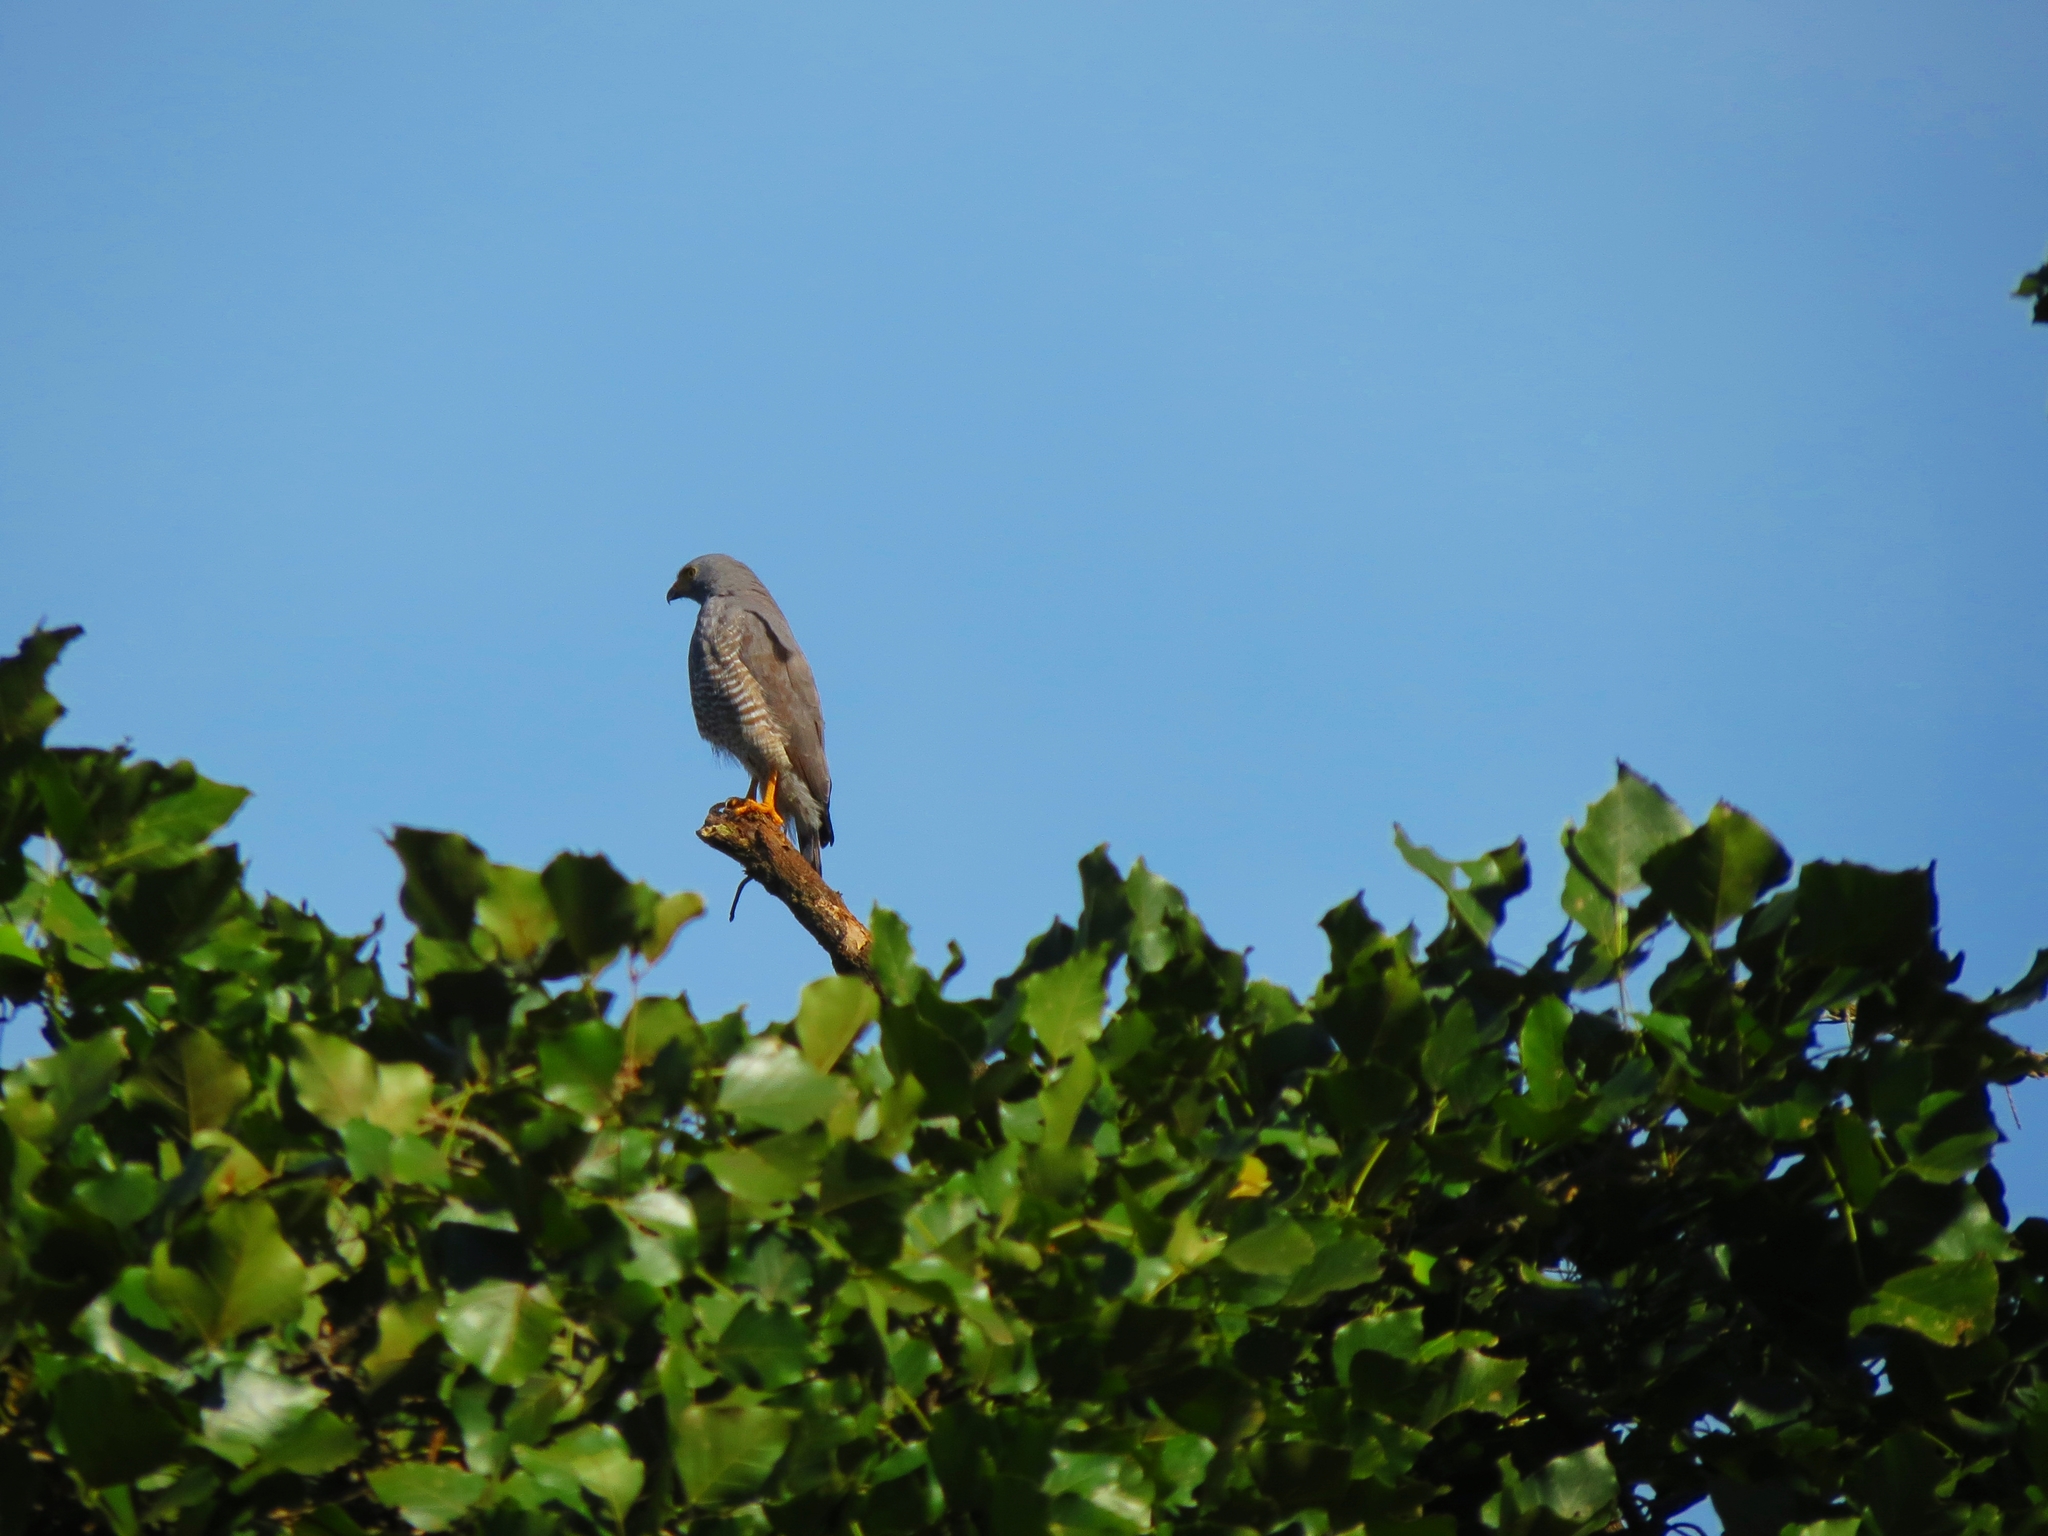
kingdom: Animalia
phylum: Chordata
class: Aves
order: Accipitriformes
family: Accipitridae
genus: Rupornis
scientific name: Rupornis magnirostris
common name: Roadside hawk
